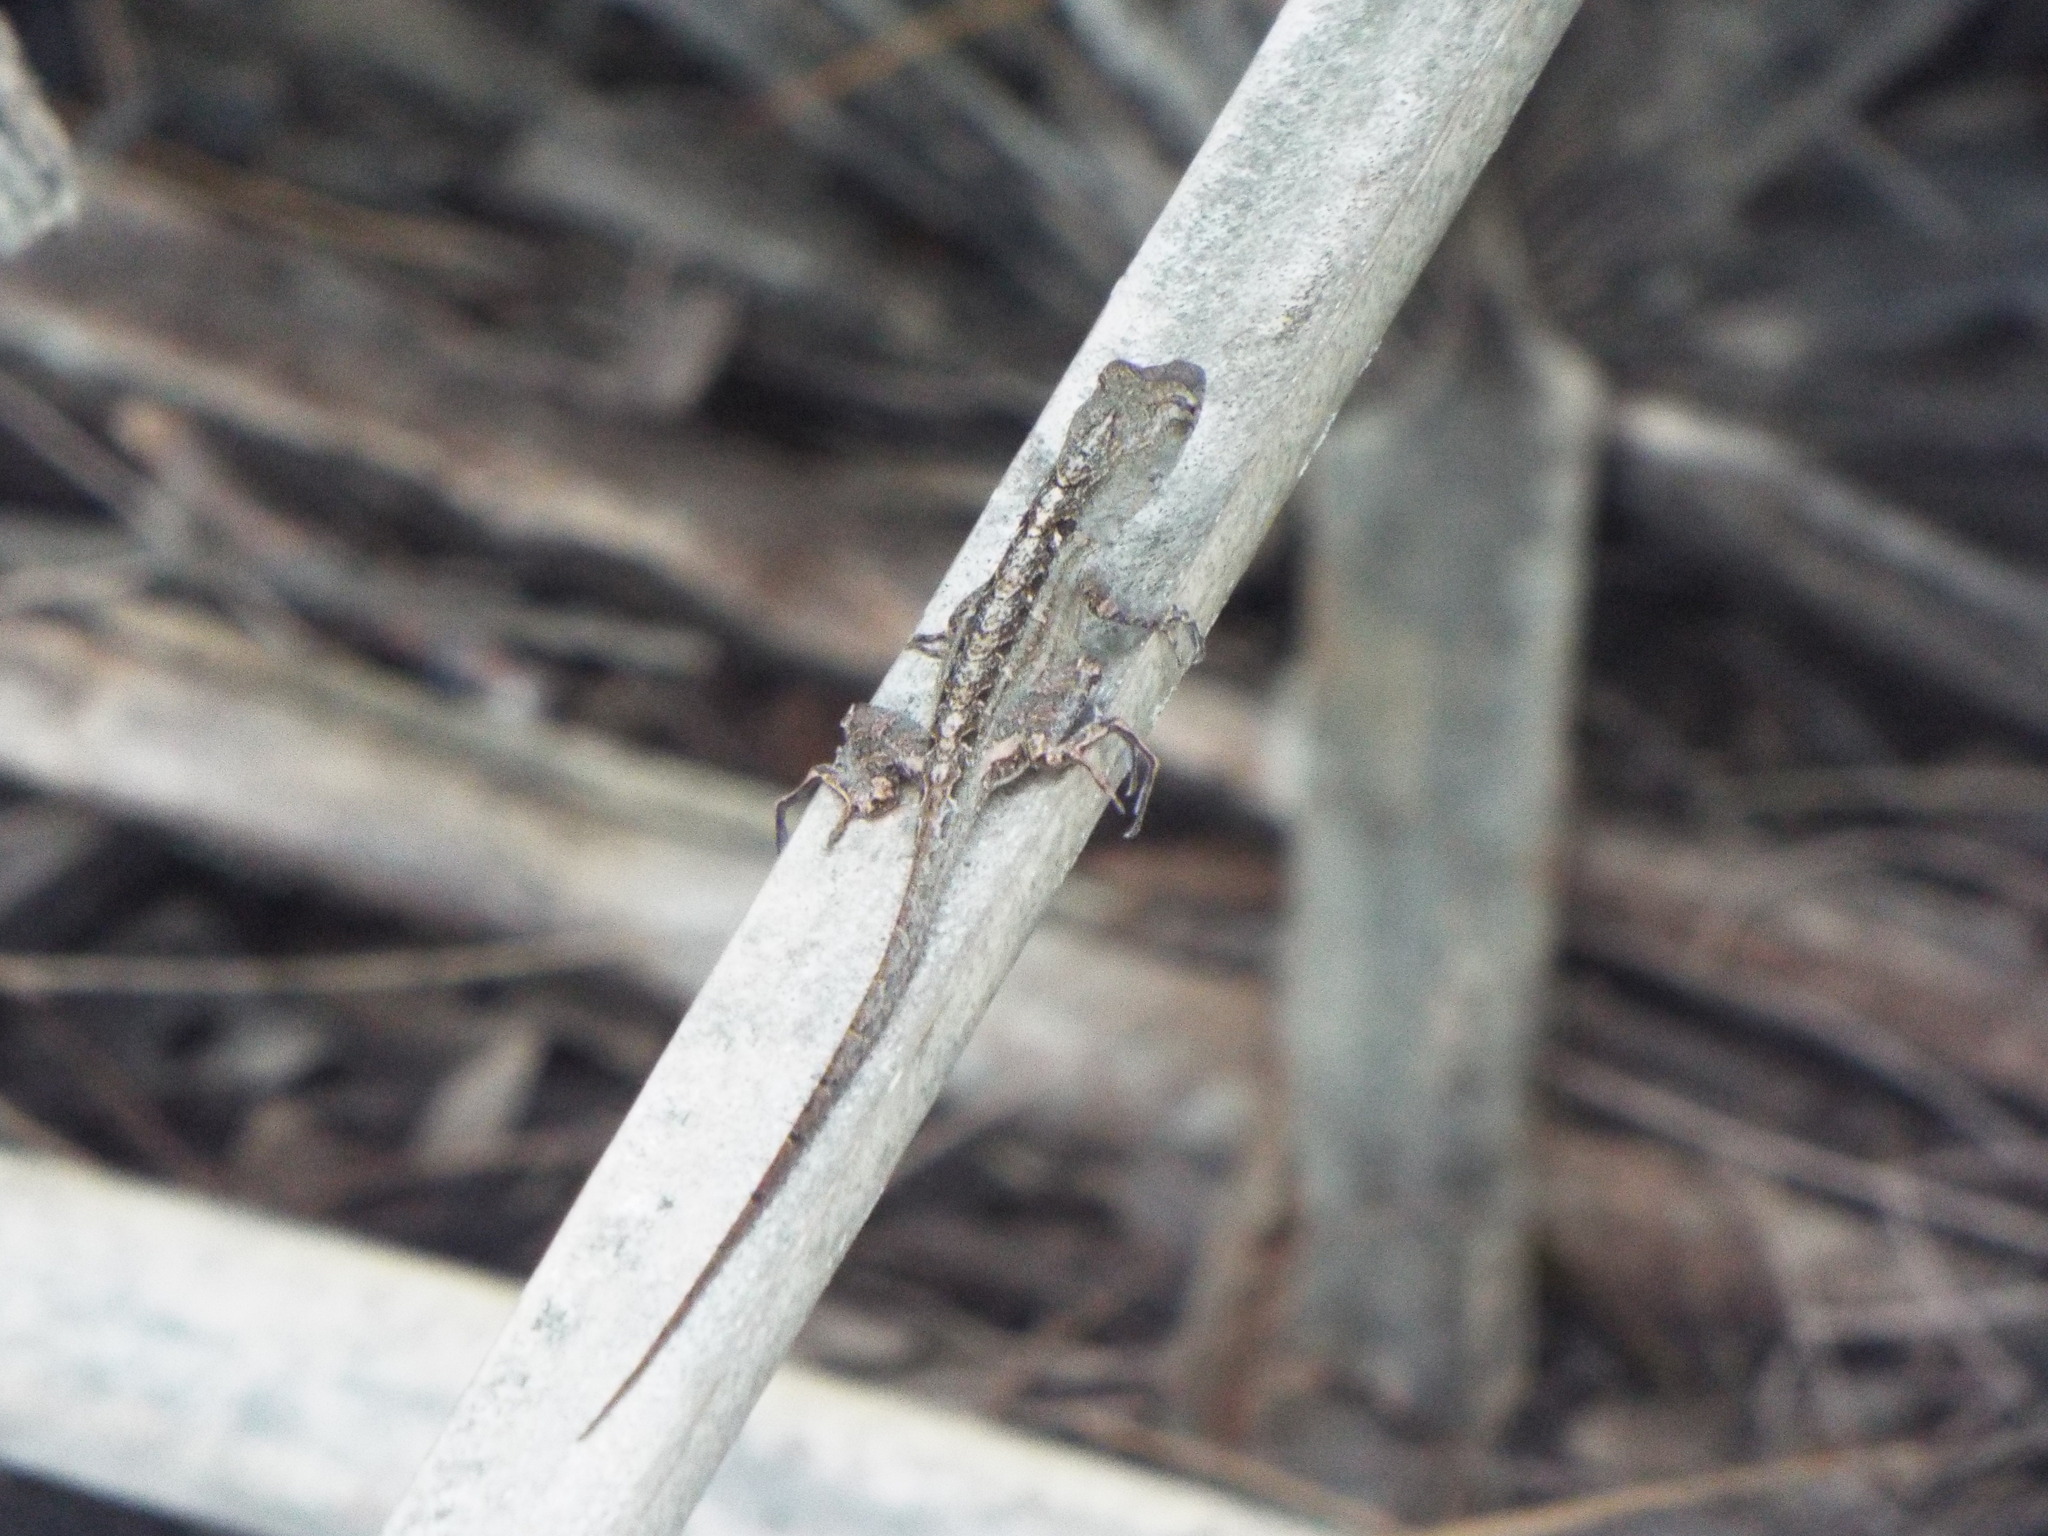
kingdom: Animalia
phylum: Chordata
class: Squamata
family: Dactyloidae
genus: Anolis
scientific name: Anolis sagrei
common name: Brown anole
